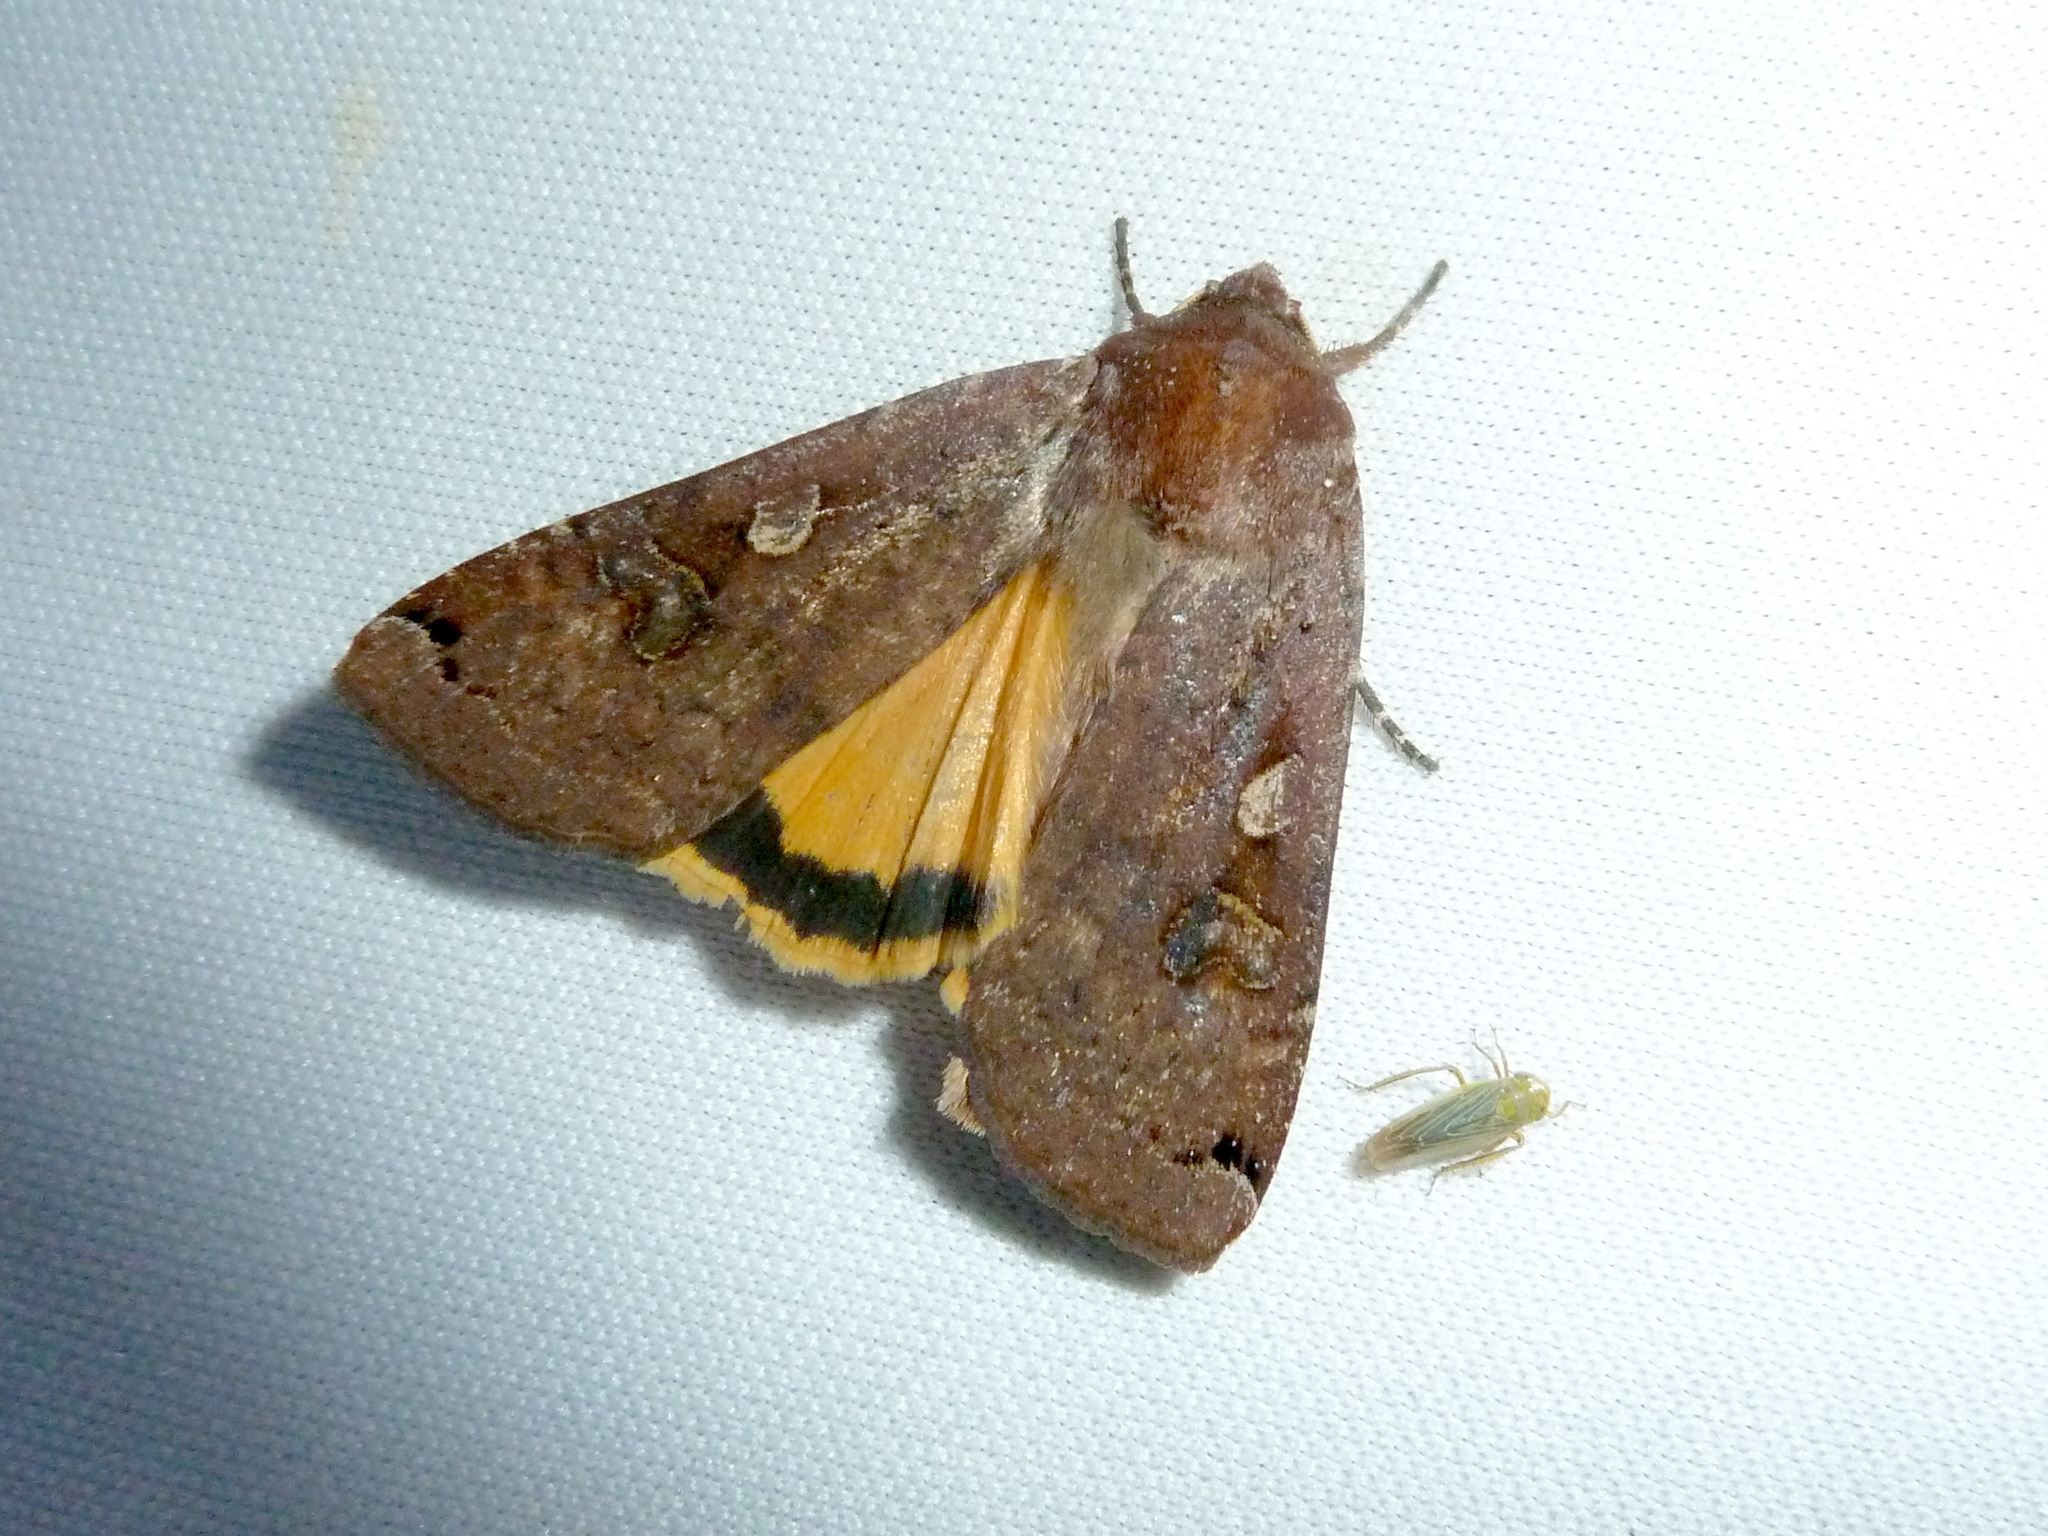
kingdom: Animalia
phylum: Arthropoda
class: Insecta
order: Lepidoptera
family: Noctuidae
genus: Noctua
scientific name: Noctua pronuba
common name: Large yellow underwing
